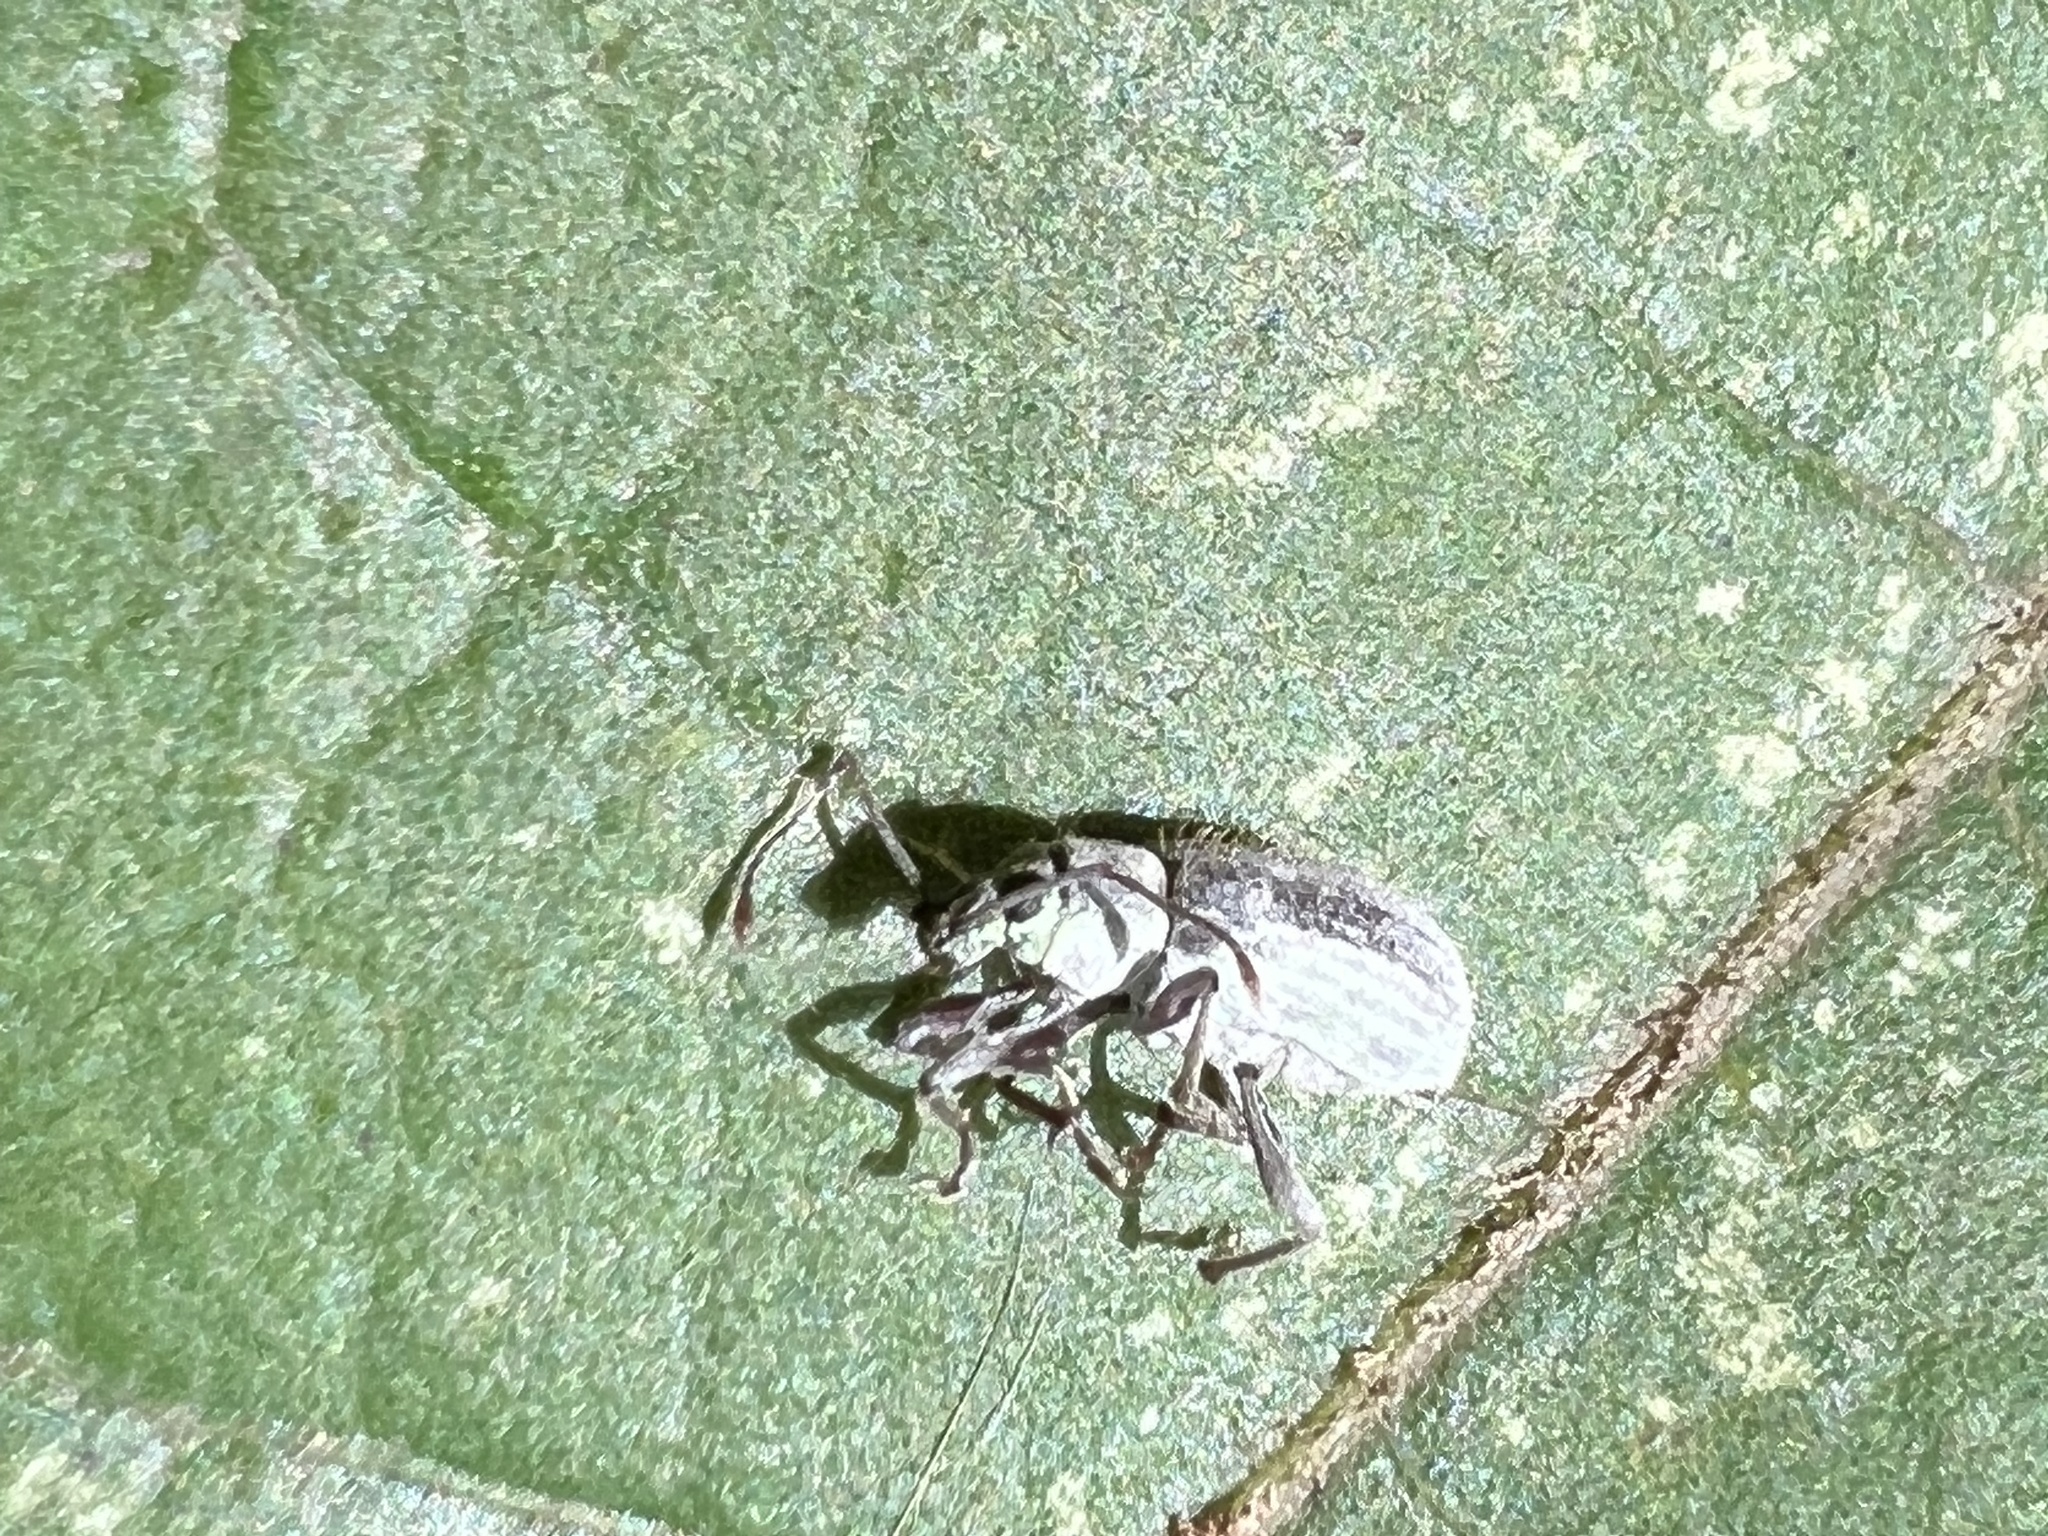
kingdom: Animalia
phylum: Arthropoda
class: Insecta
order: Coleoptera
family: Curculionidae
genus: Cyrtepistomus
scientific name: Cyrtepistomus castaneus
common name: Weevil
